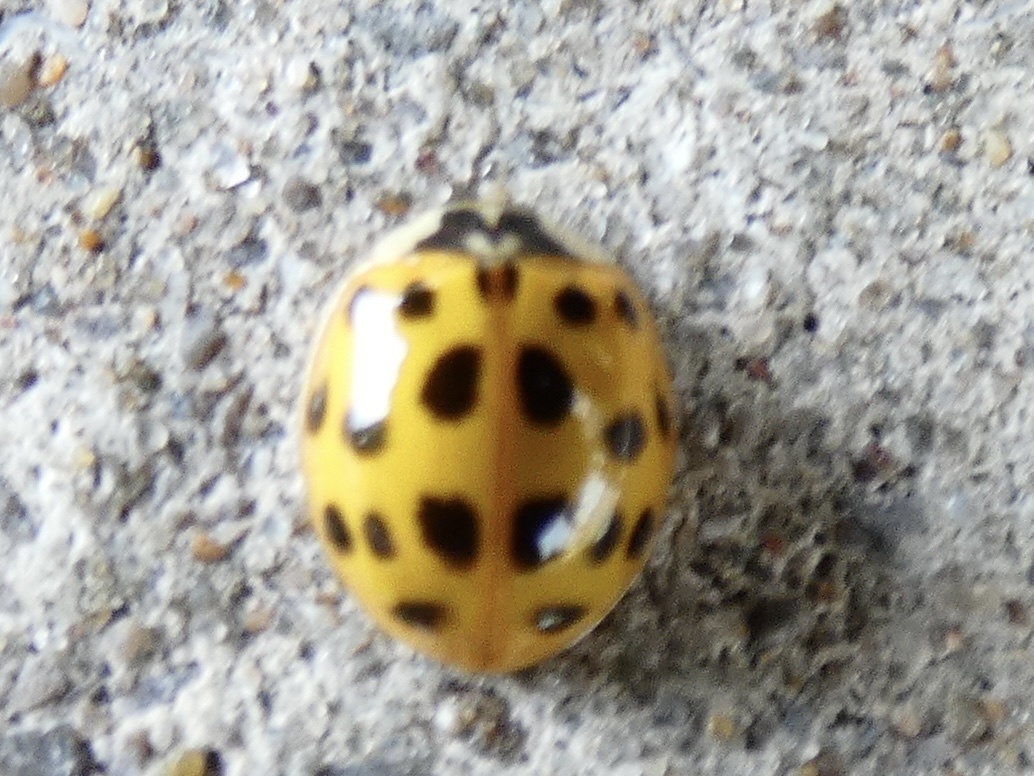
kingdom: Animalia
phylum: Arthropoda
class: Insecta
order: Coleoptera
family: Coccinellidae
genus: Harmonia
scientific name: Harmonia axyridis
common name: Harlequin ladybird
